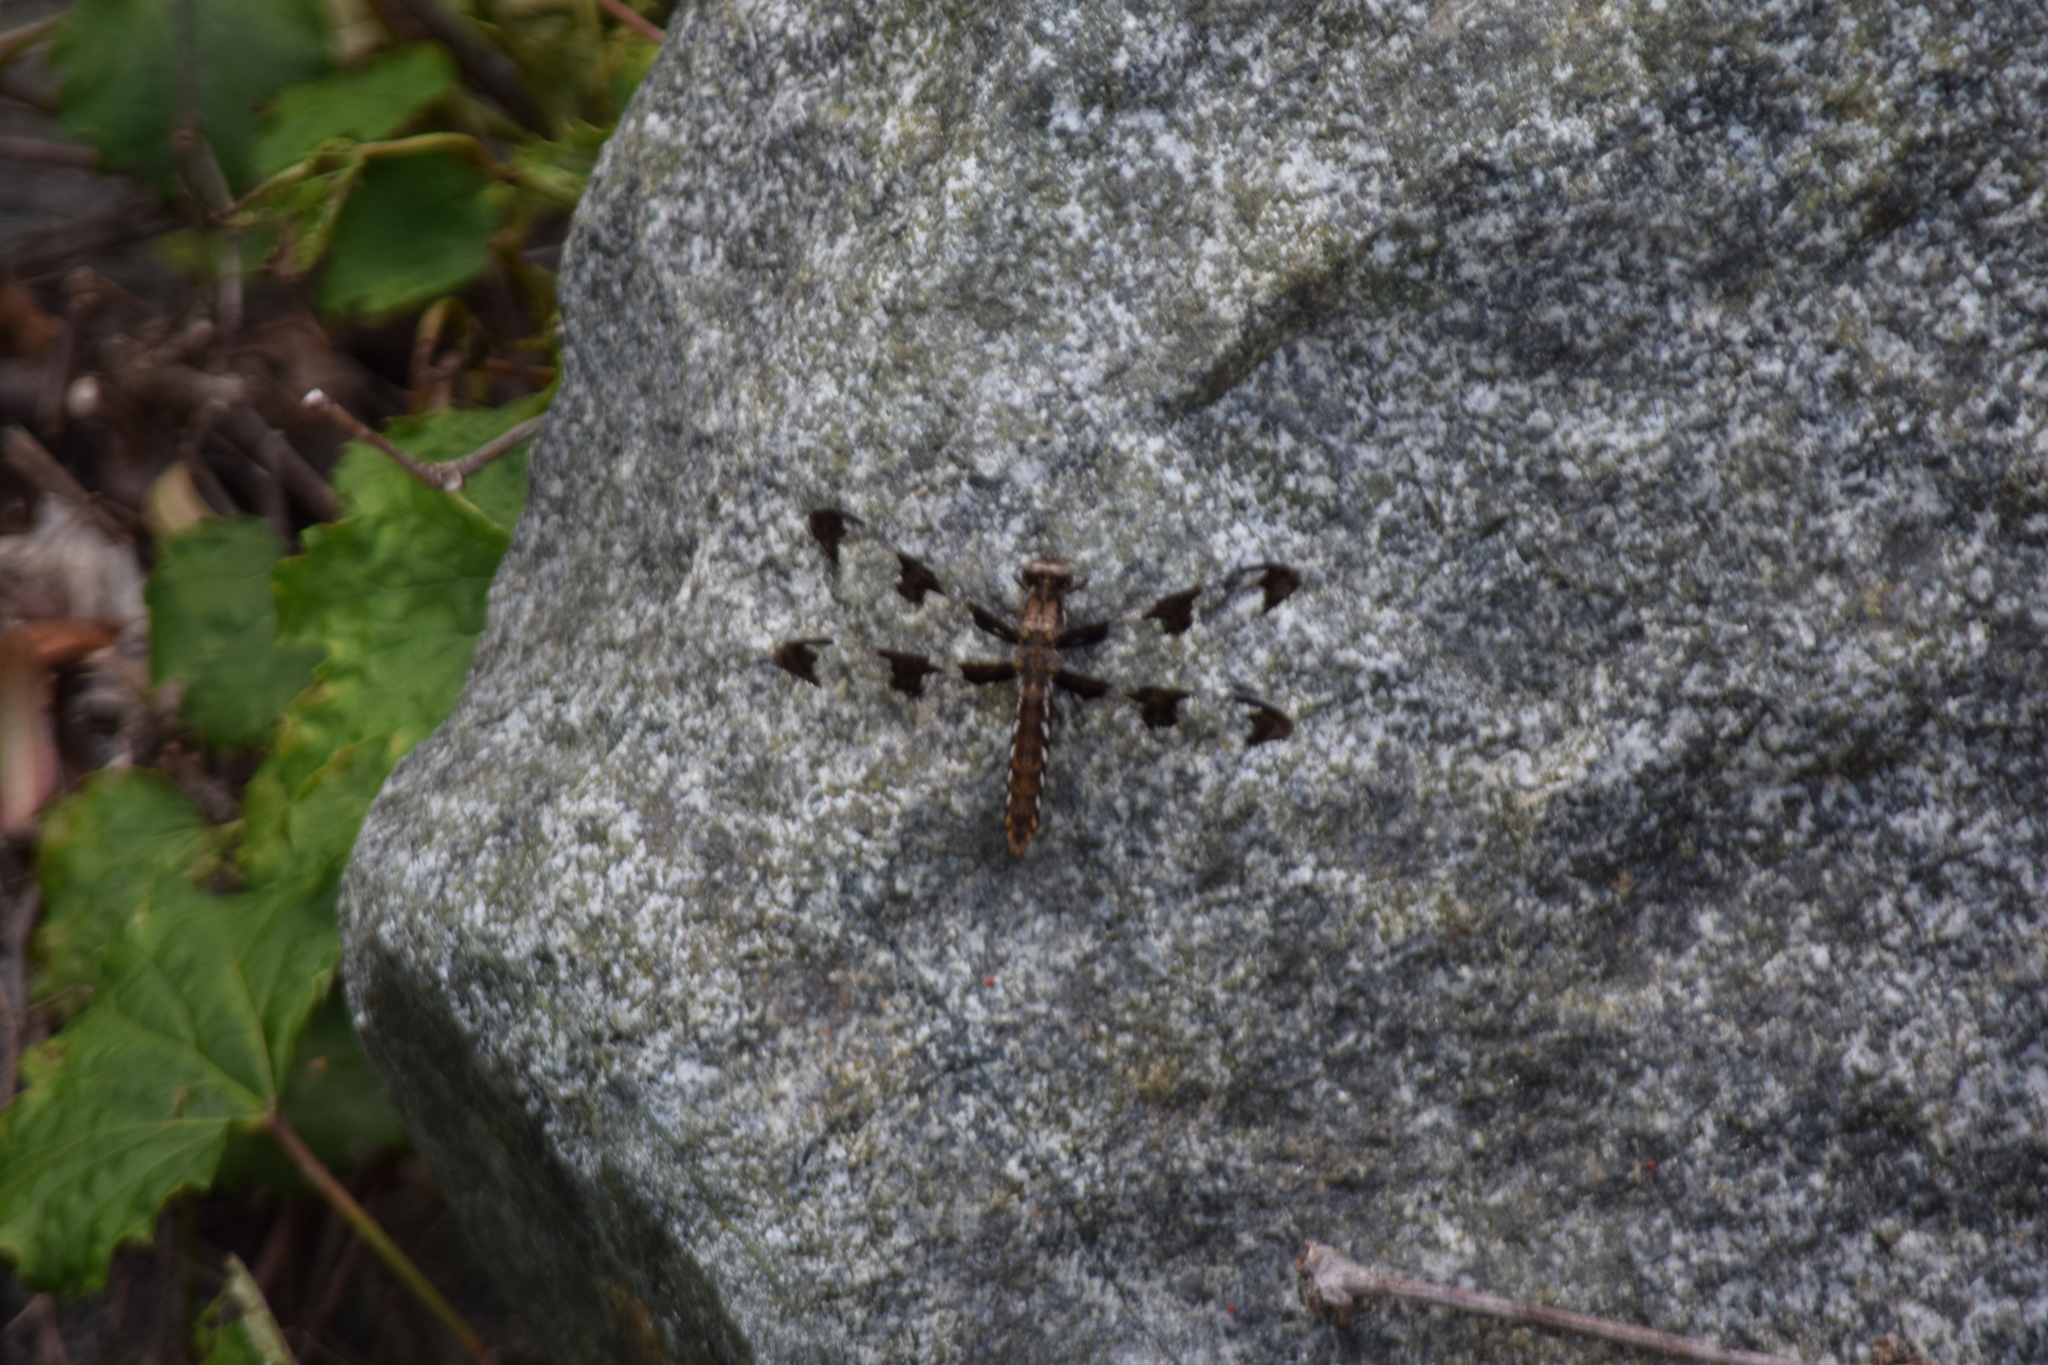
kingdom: Animalia
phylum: Arthropoda
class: Insecta
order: Odonata
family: Libellulidae
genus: Plathemis
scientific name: Plathemis lydia
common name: Common whitetail
